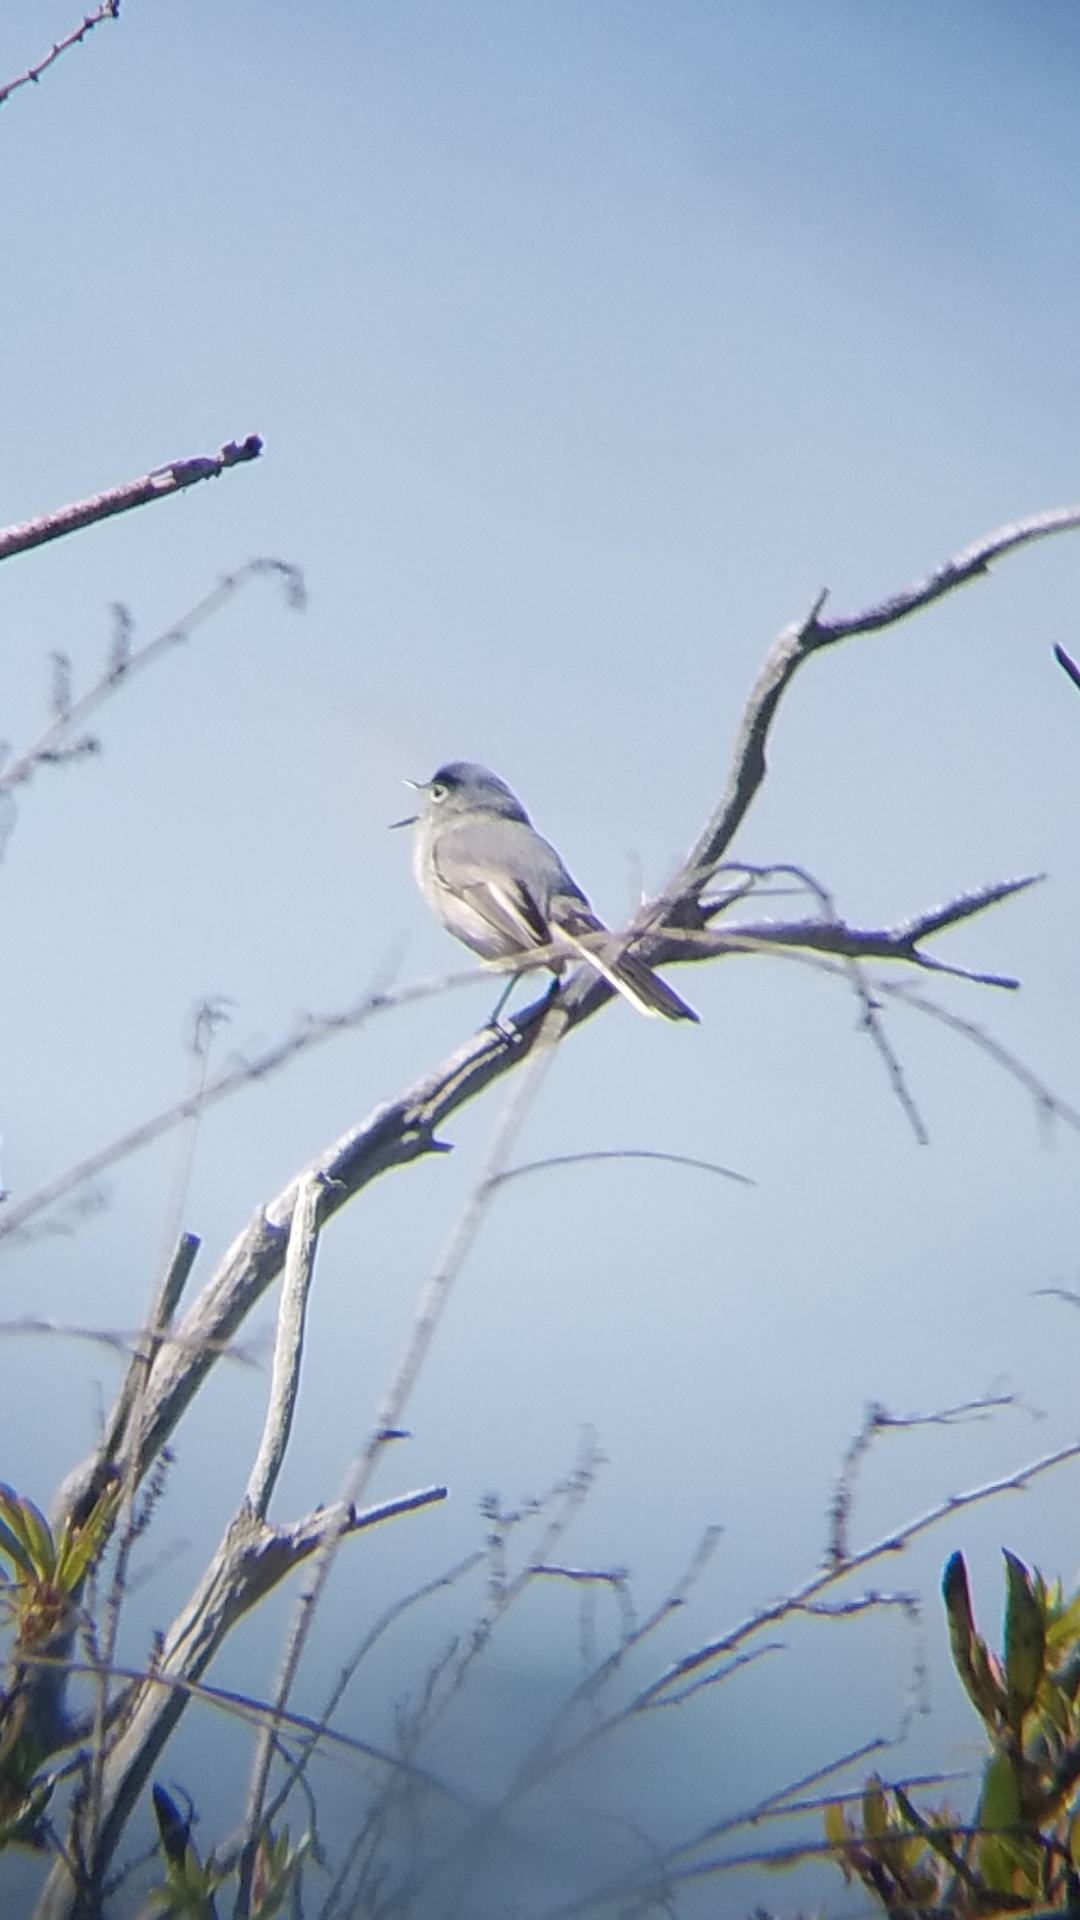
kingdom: Animalia
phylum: Chordata
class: Aves
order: Passeriformes
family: Polioptilidae
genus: Polioptila
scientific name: Polioptila caerulea
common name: Blue-gray gnatcatcher
